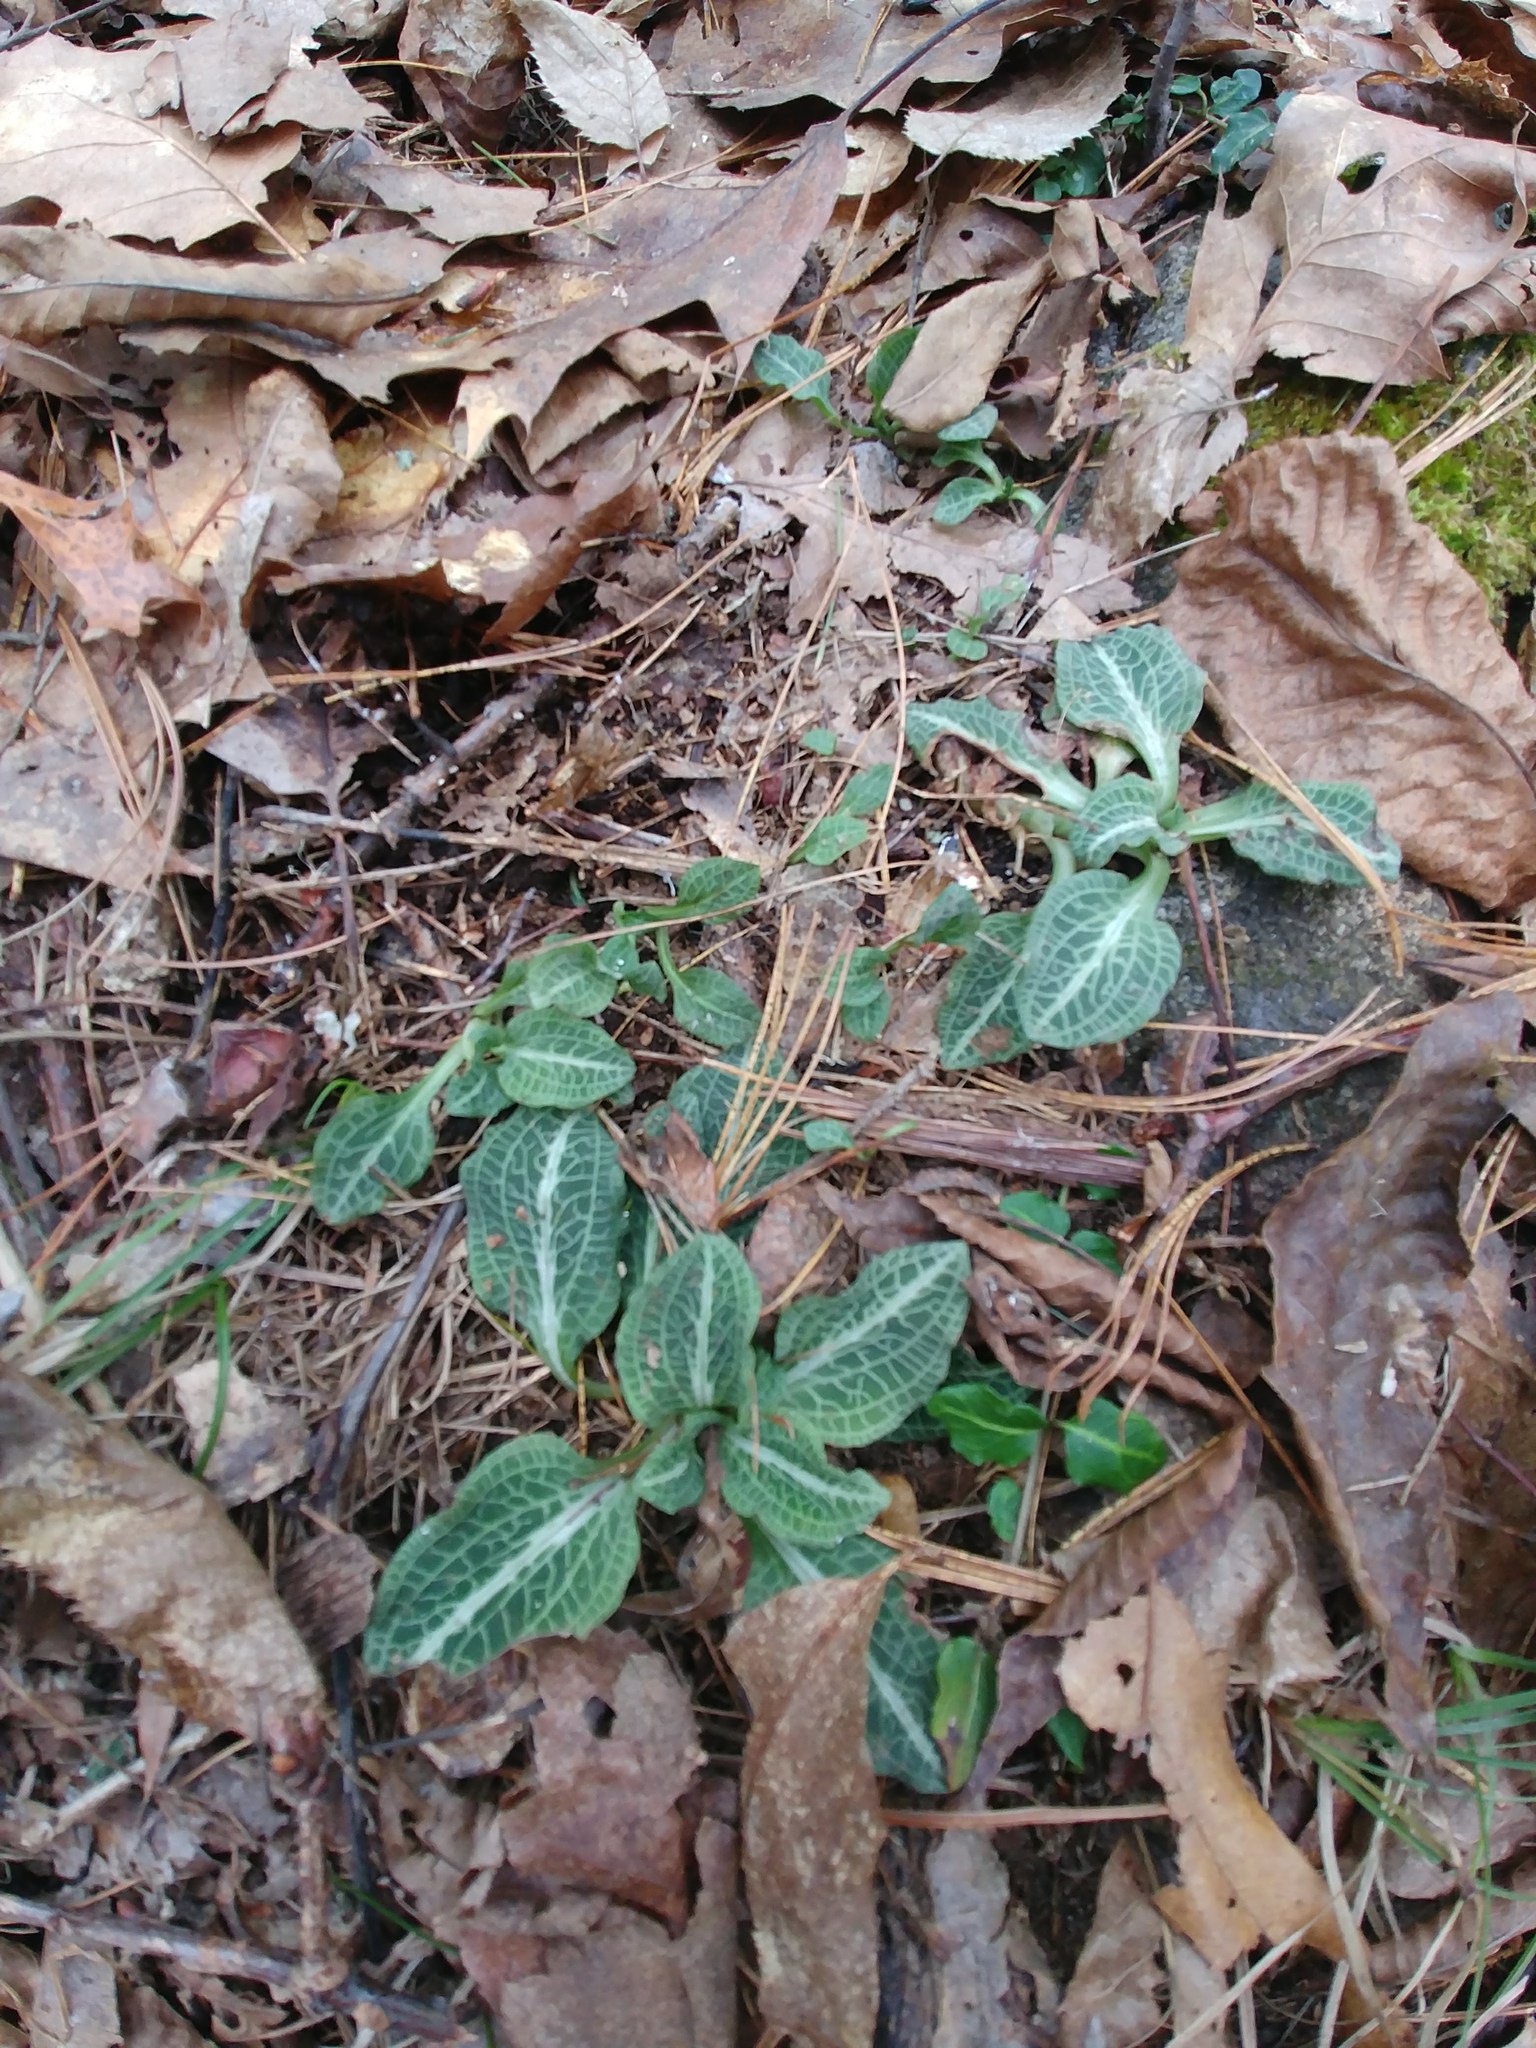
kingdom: Plantae
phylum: Tracheophyta
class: Liliopsida
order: Asparagales
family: Orchidaceae
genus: Goodyera
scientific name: Goodyera pubescens
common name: Downy rattlesnake-plantain
